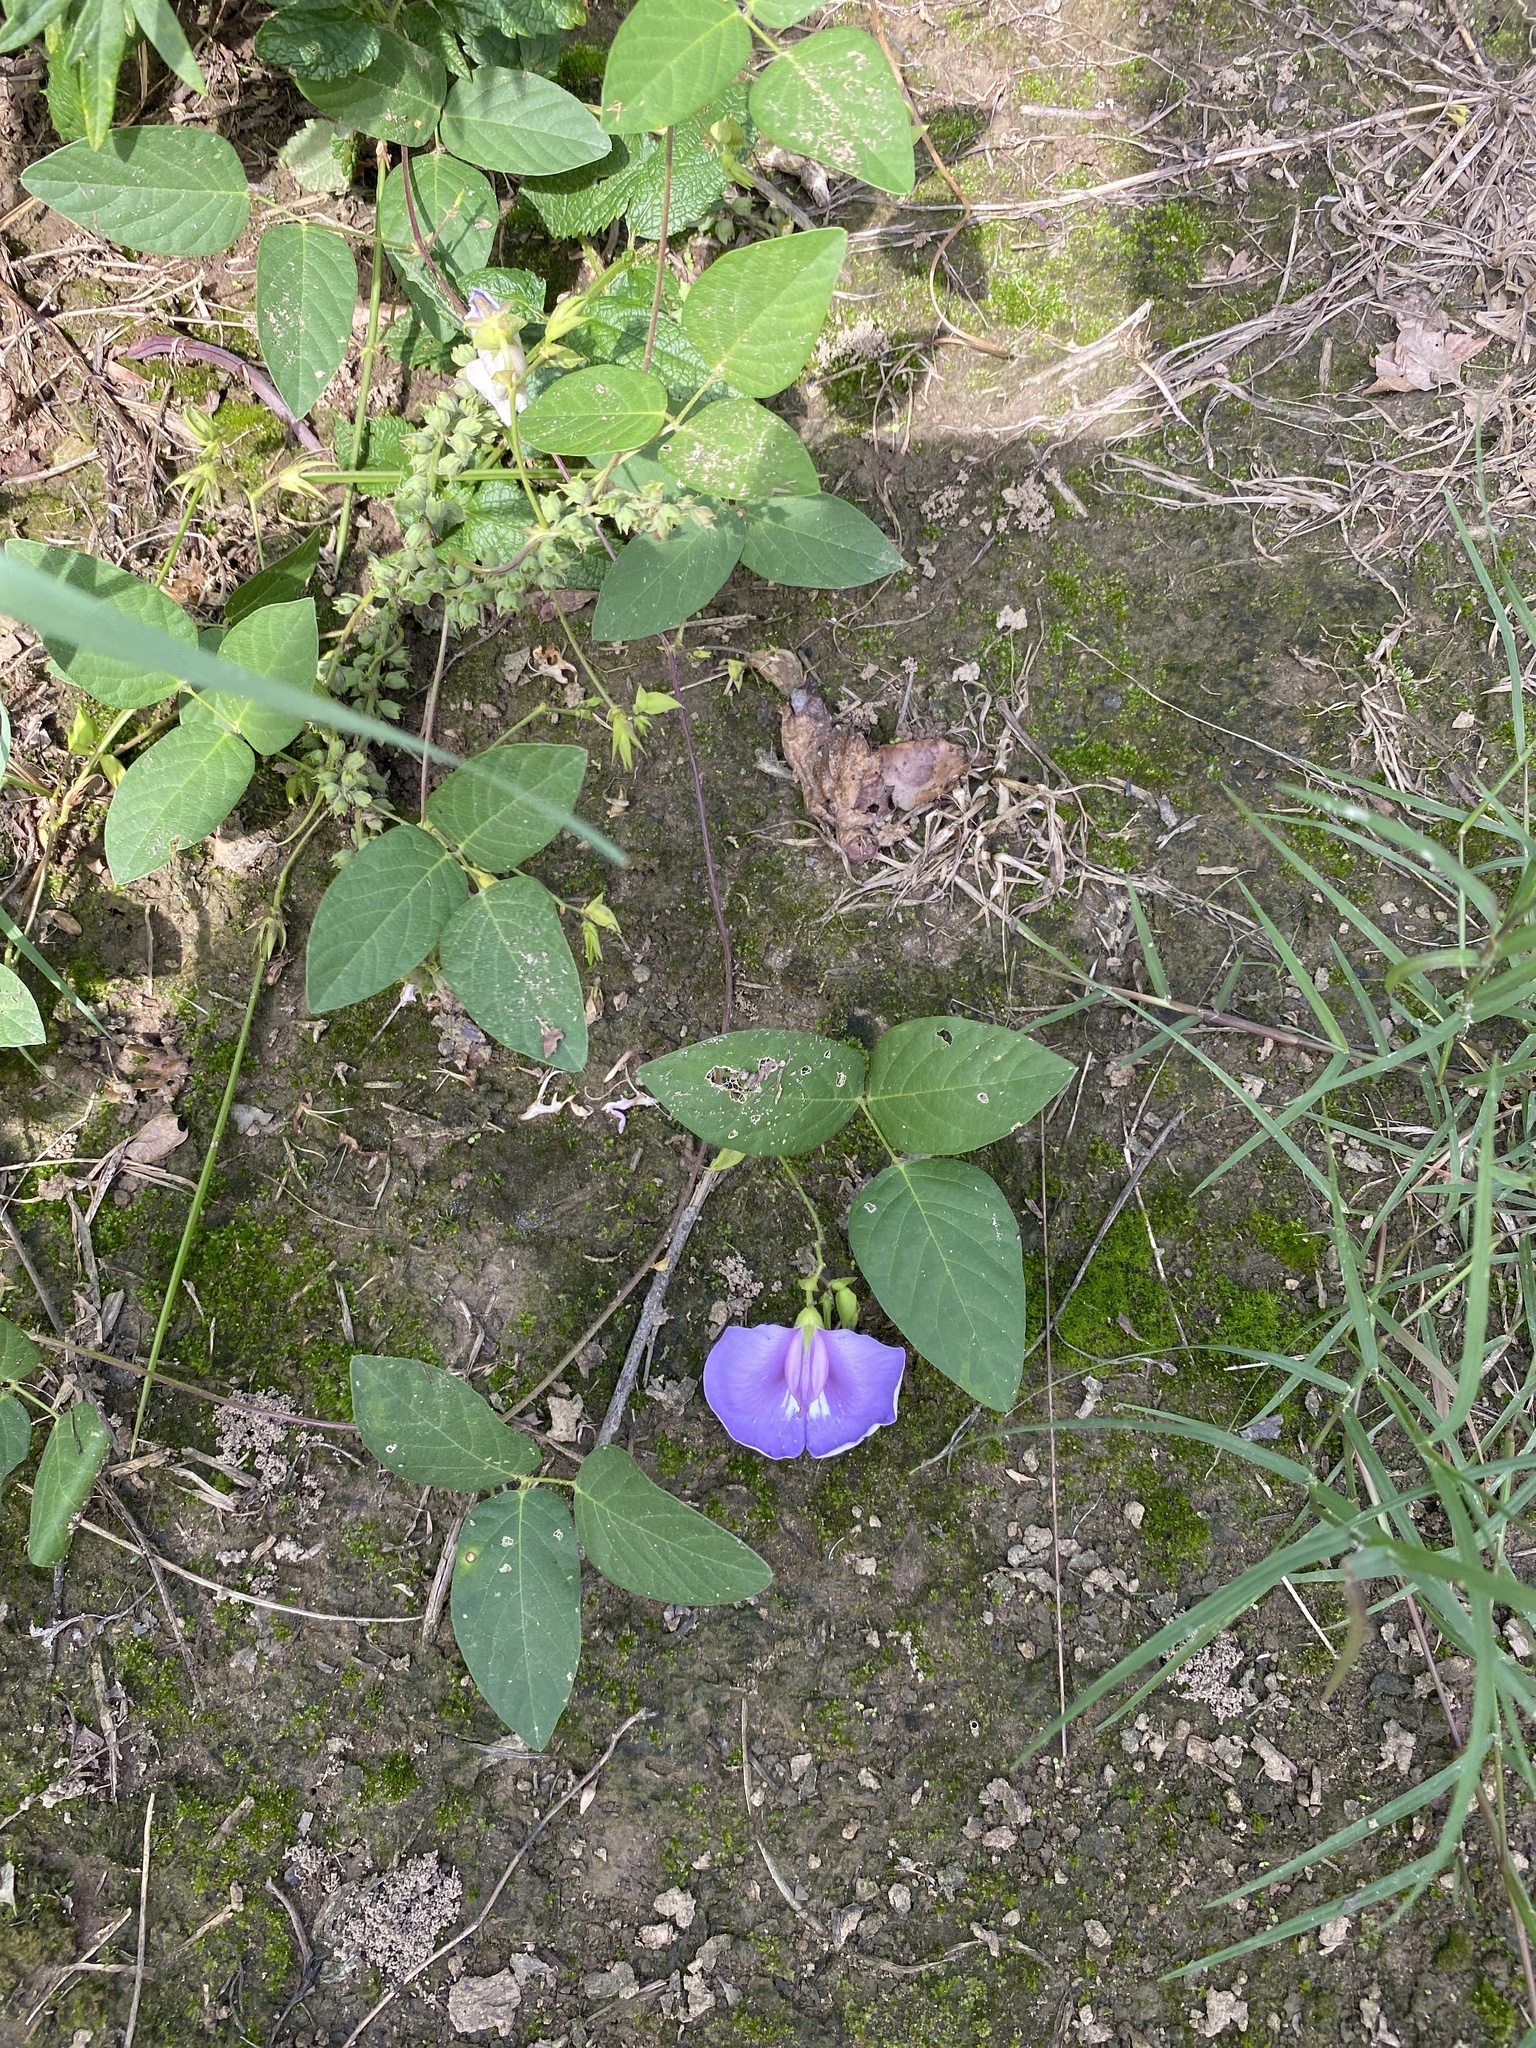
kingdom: Plantae
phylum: Tracheophyta
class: Magnoliopsida
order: Fabales
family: Fabaceae
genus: Centrosema
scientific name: Centrosema virginianum
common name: Butterfly-pea
